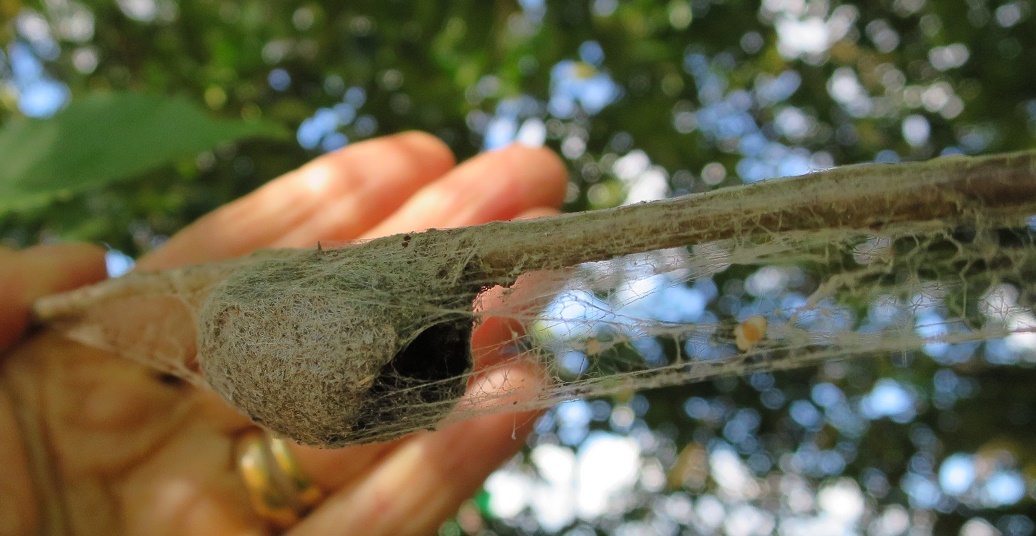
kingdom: Animalia
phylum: Arthropoda
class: Insecta
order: Lepidoptera
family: Saturniidae
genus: Opodiphthera
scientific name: Opodiphthera
